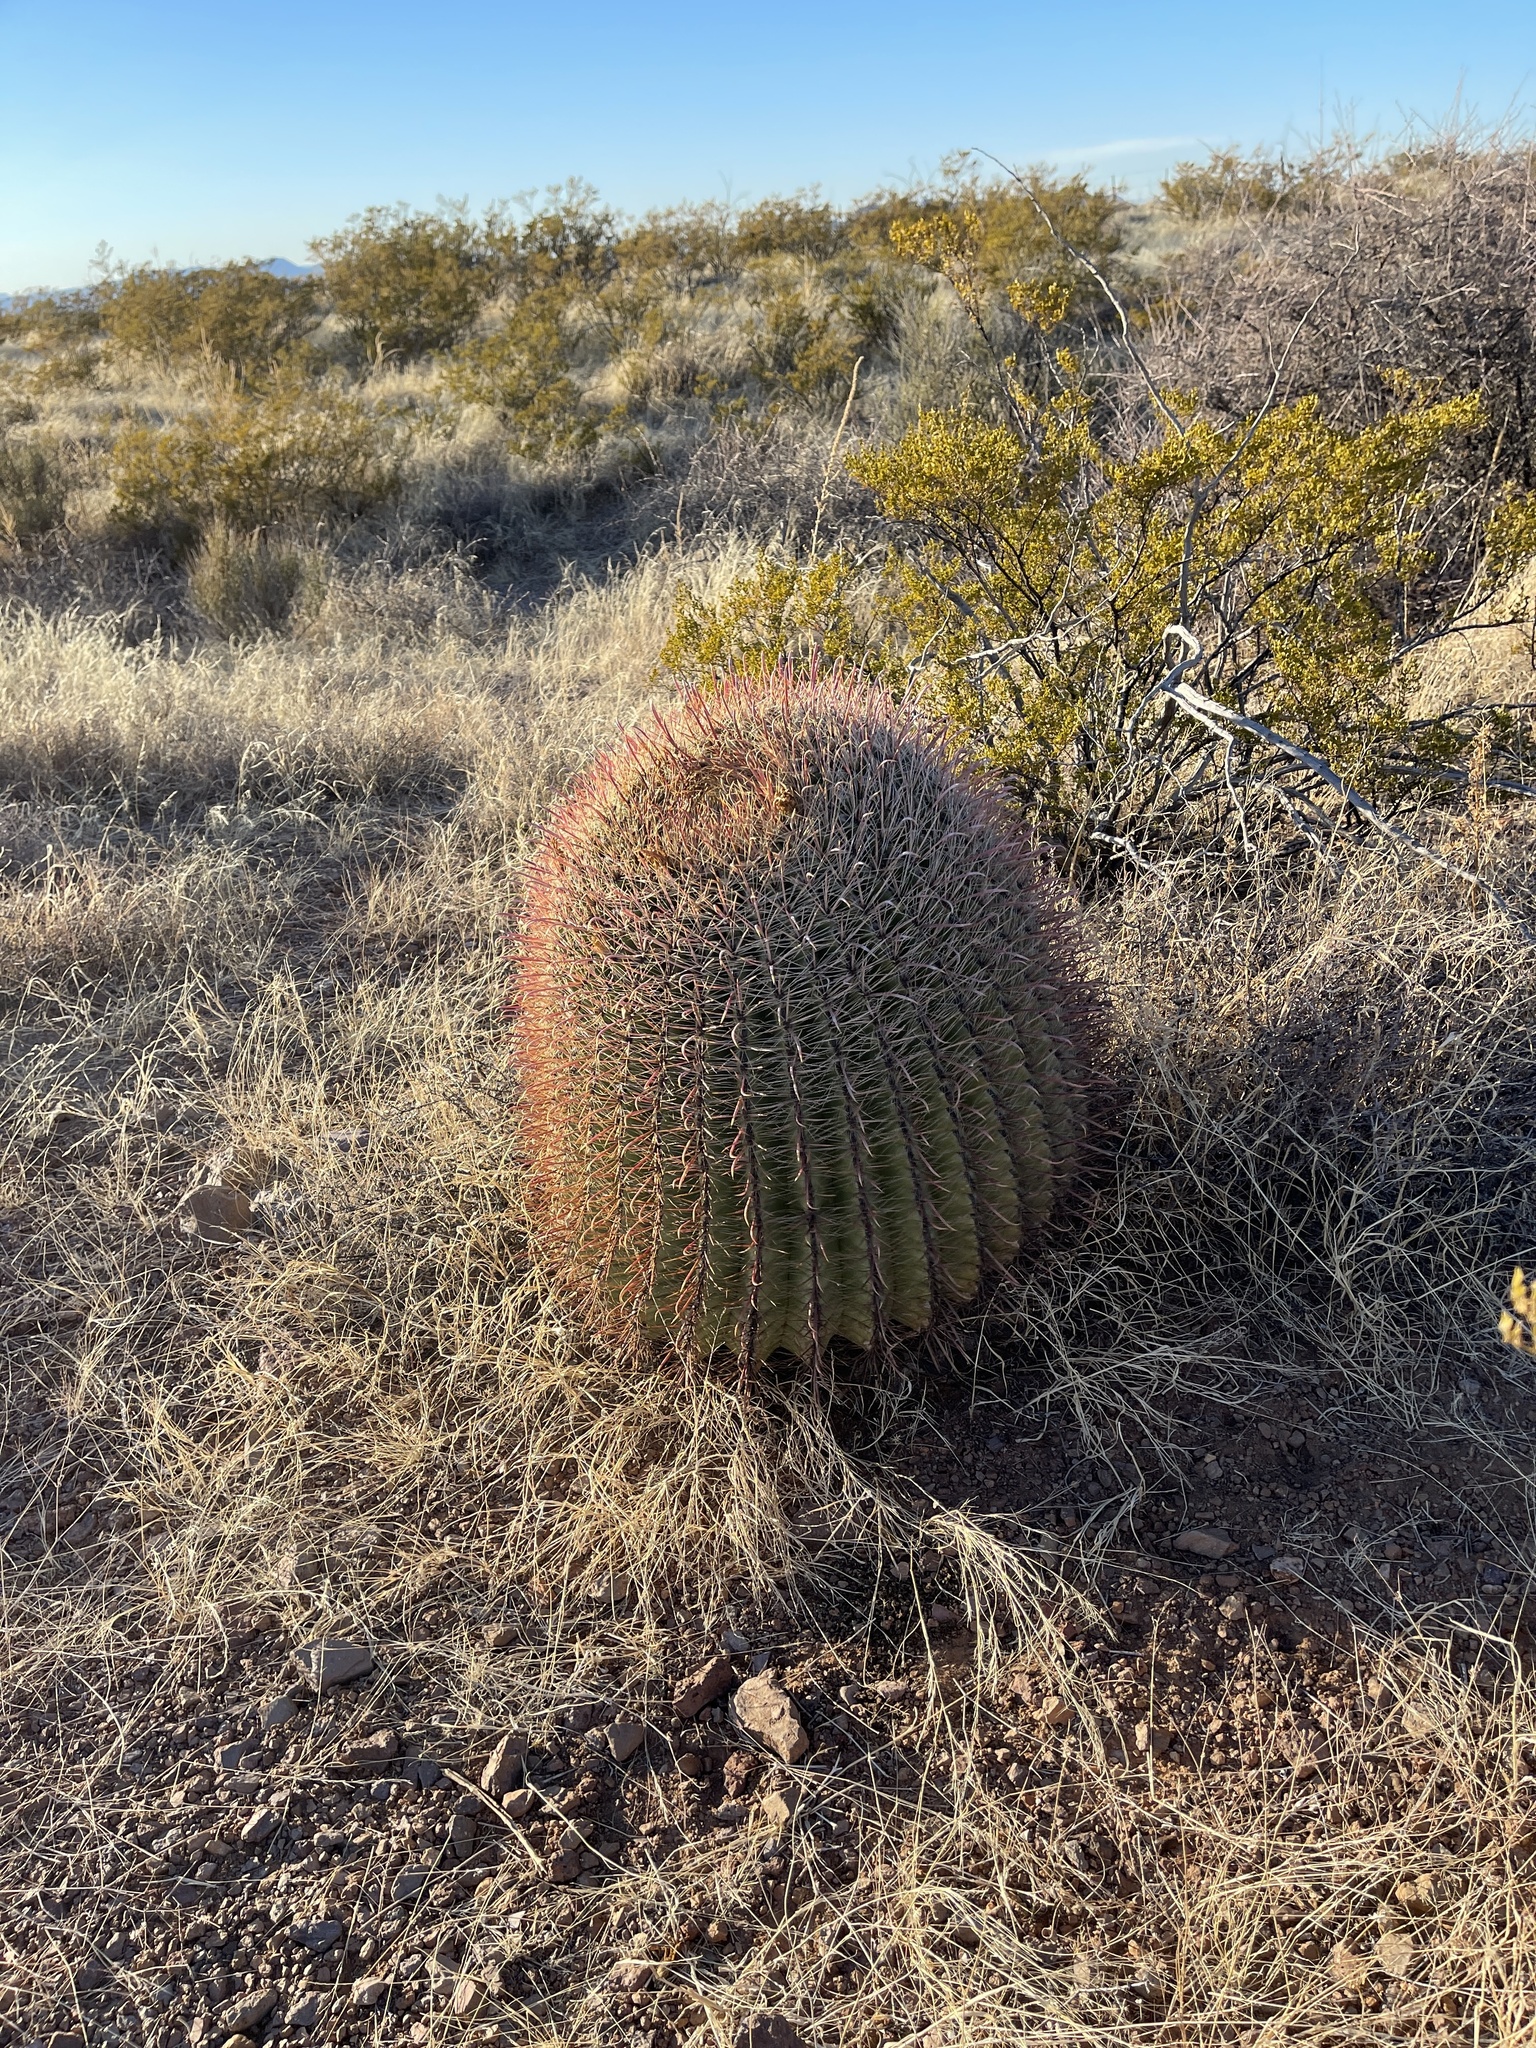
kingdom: Plantae
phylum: Tracheophyta
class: Magnoliopsida
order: Caryophyllales
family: Cactaceae
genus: Ferocactus
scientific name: Ferocactus wislizeni
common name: Candy barrel cactus
